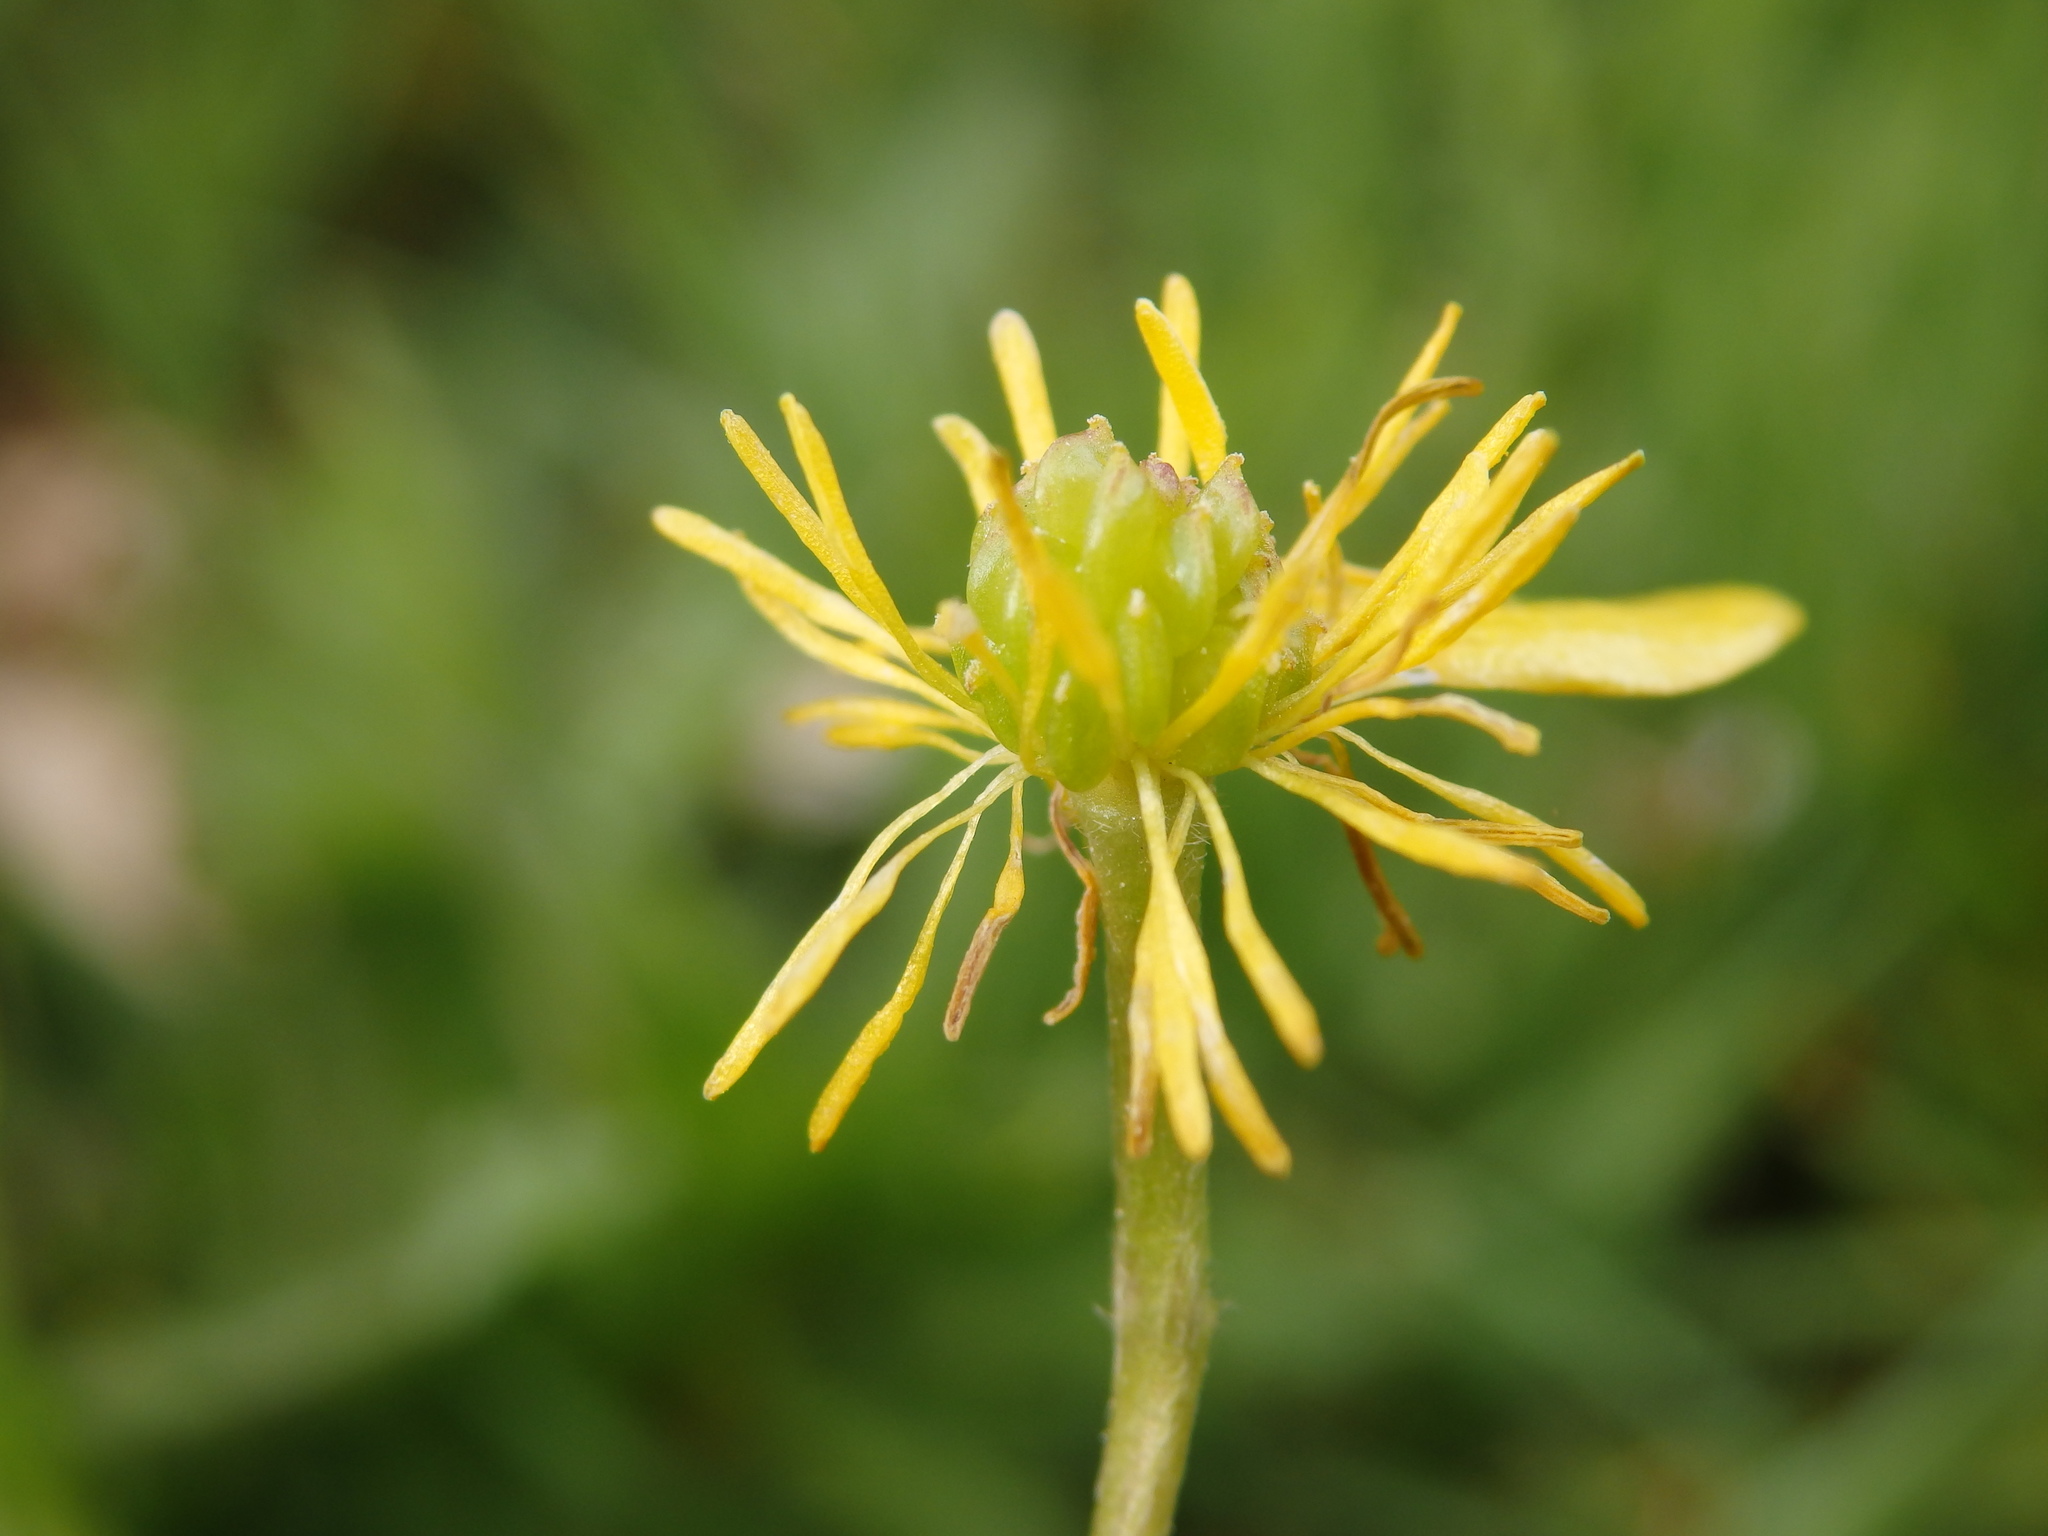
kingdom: Plantae
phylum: Tracheophyta
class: Magnoliopsida
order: Ranunculales
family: Ranunculaceae
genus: Ranunculus
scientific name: Ranunculus bulbosus
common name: Bulbous buttercup
